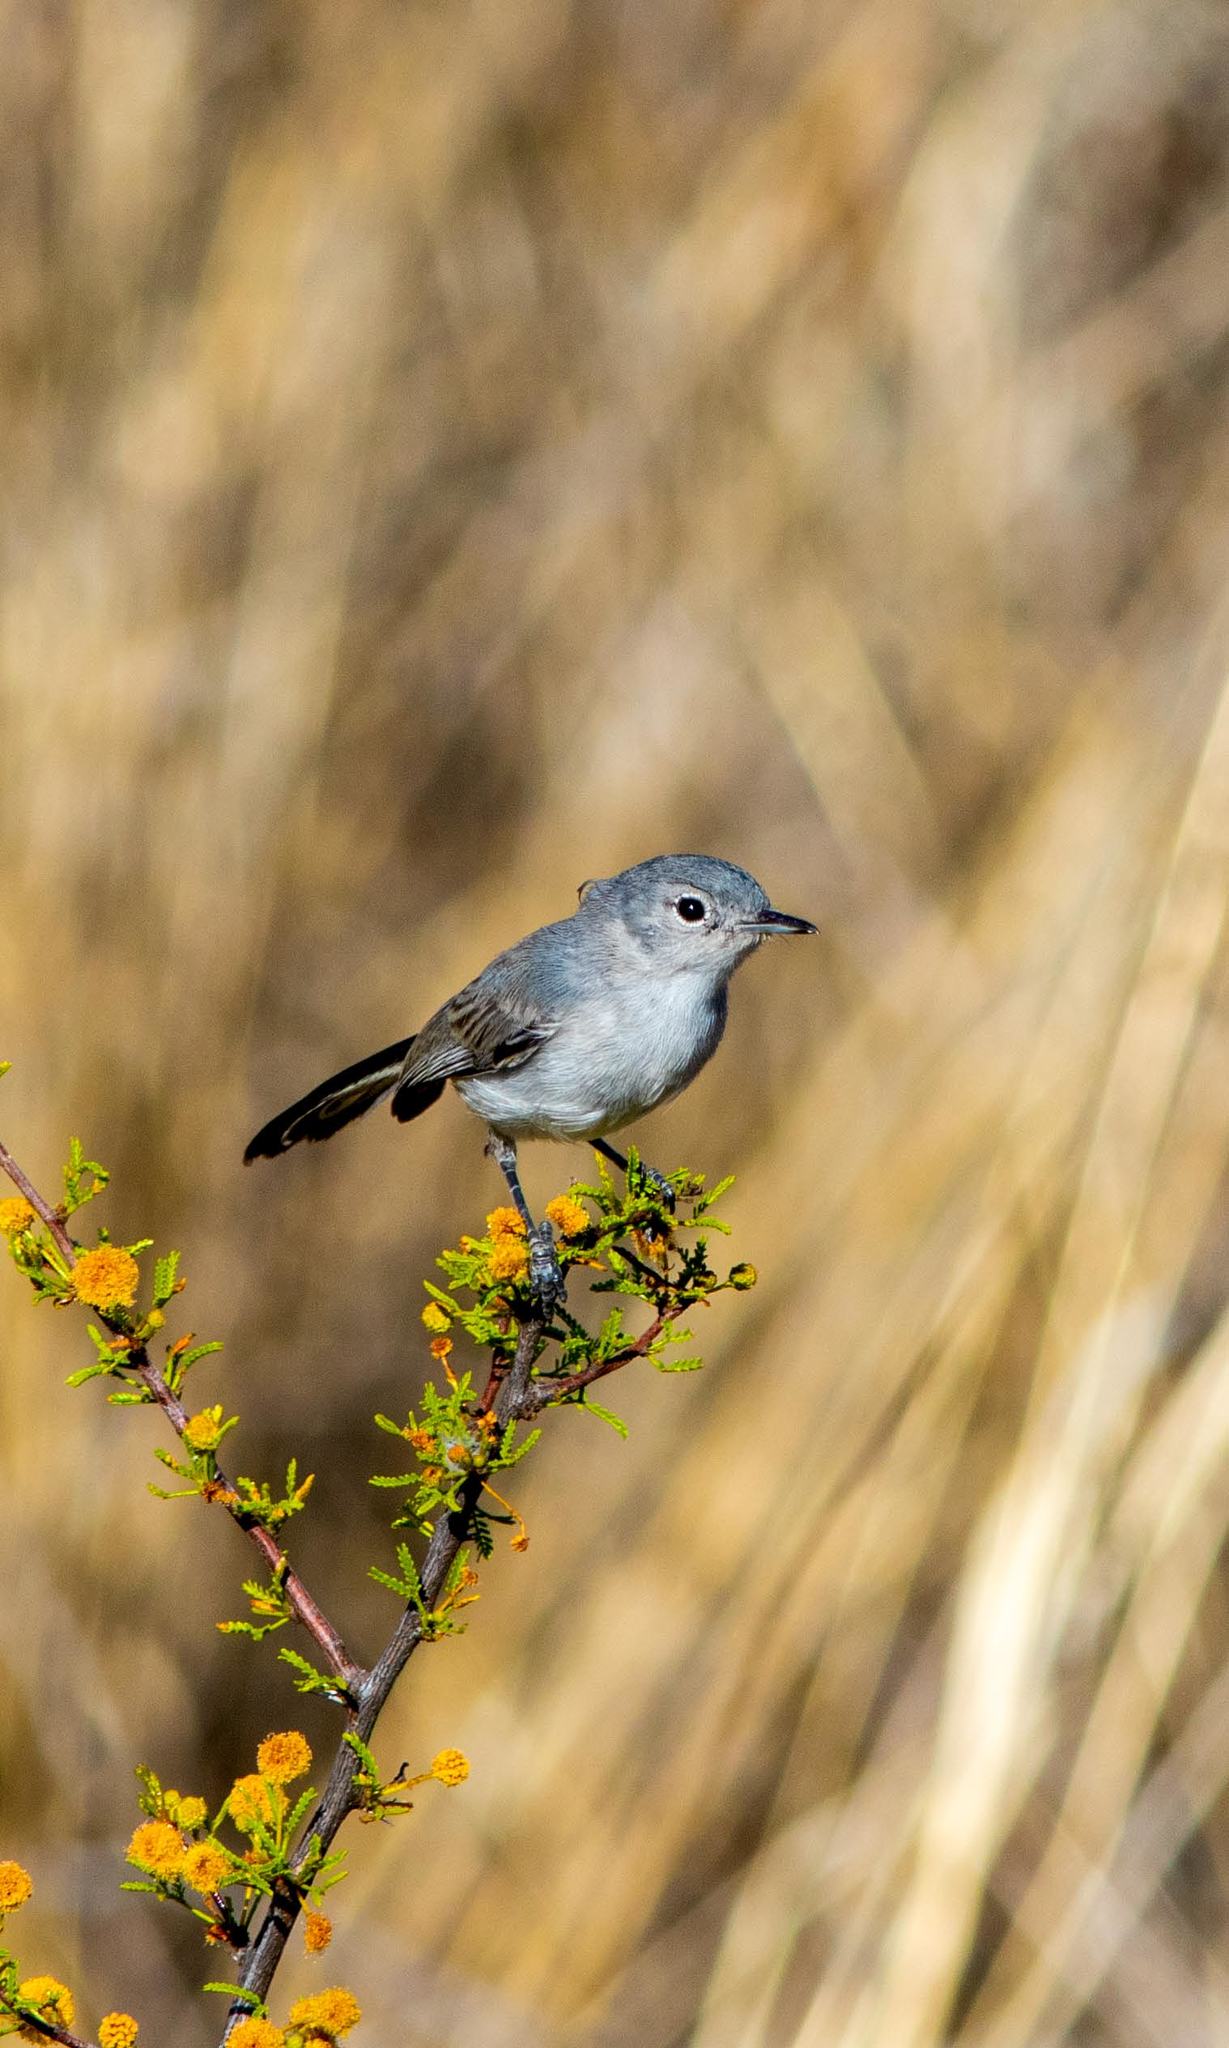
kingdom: Animalia
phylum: Chordata
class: Aves
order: Passeriformes
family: Polioptilidae
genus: Polioptila
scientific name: Polioptila melanura
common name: Black-tailed gnatcatcher
